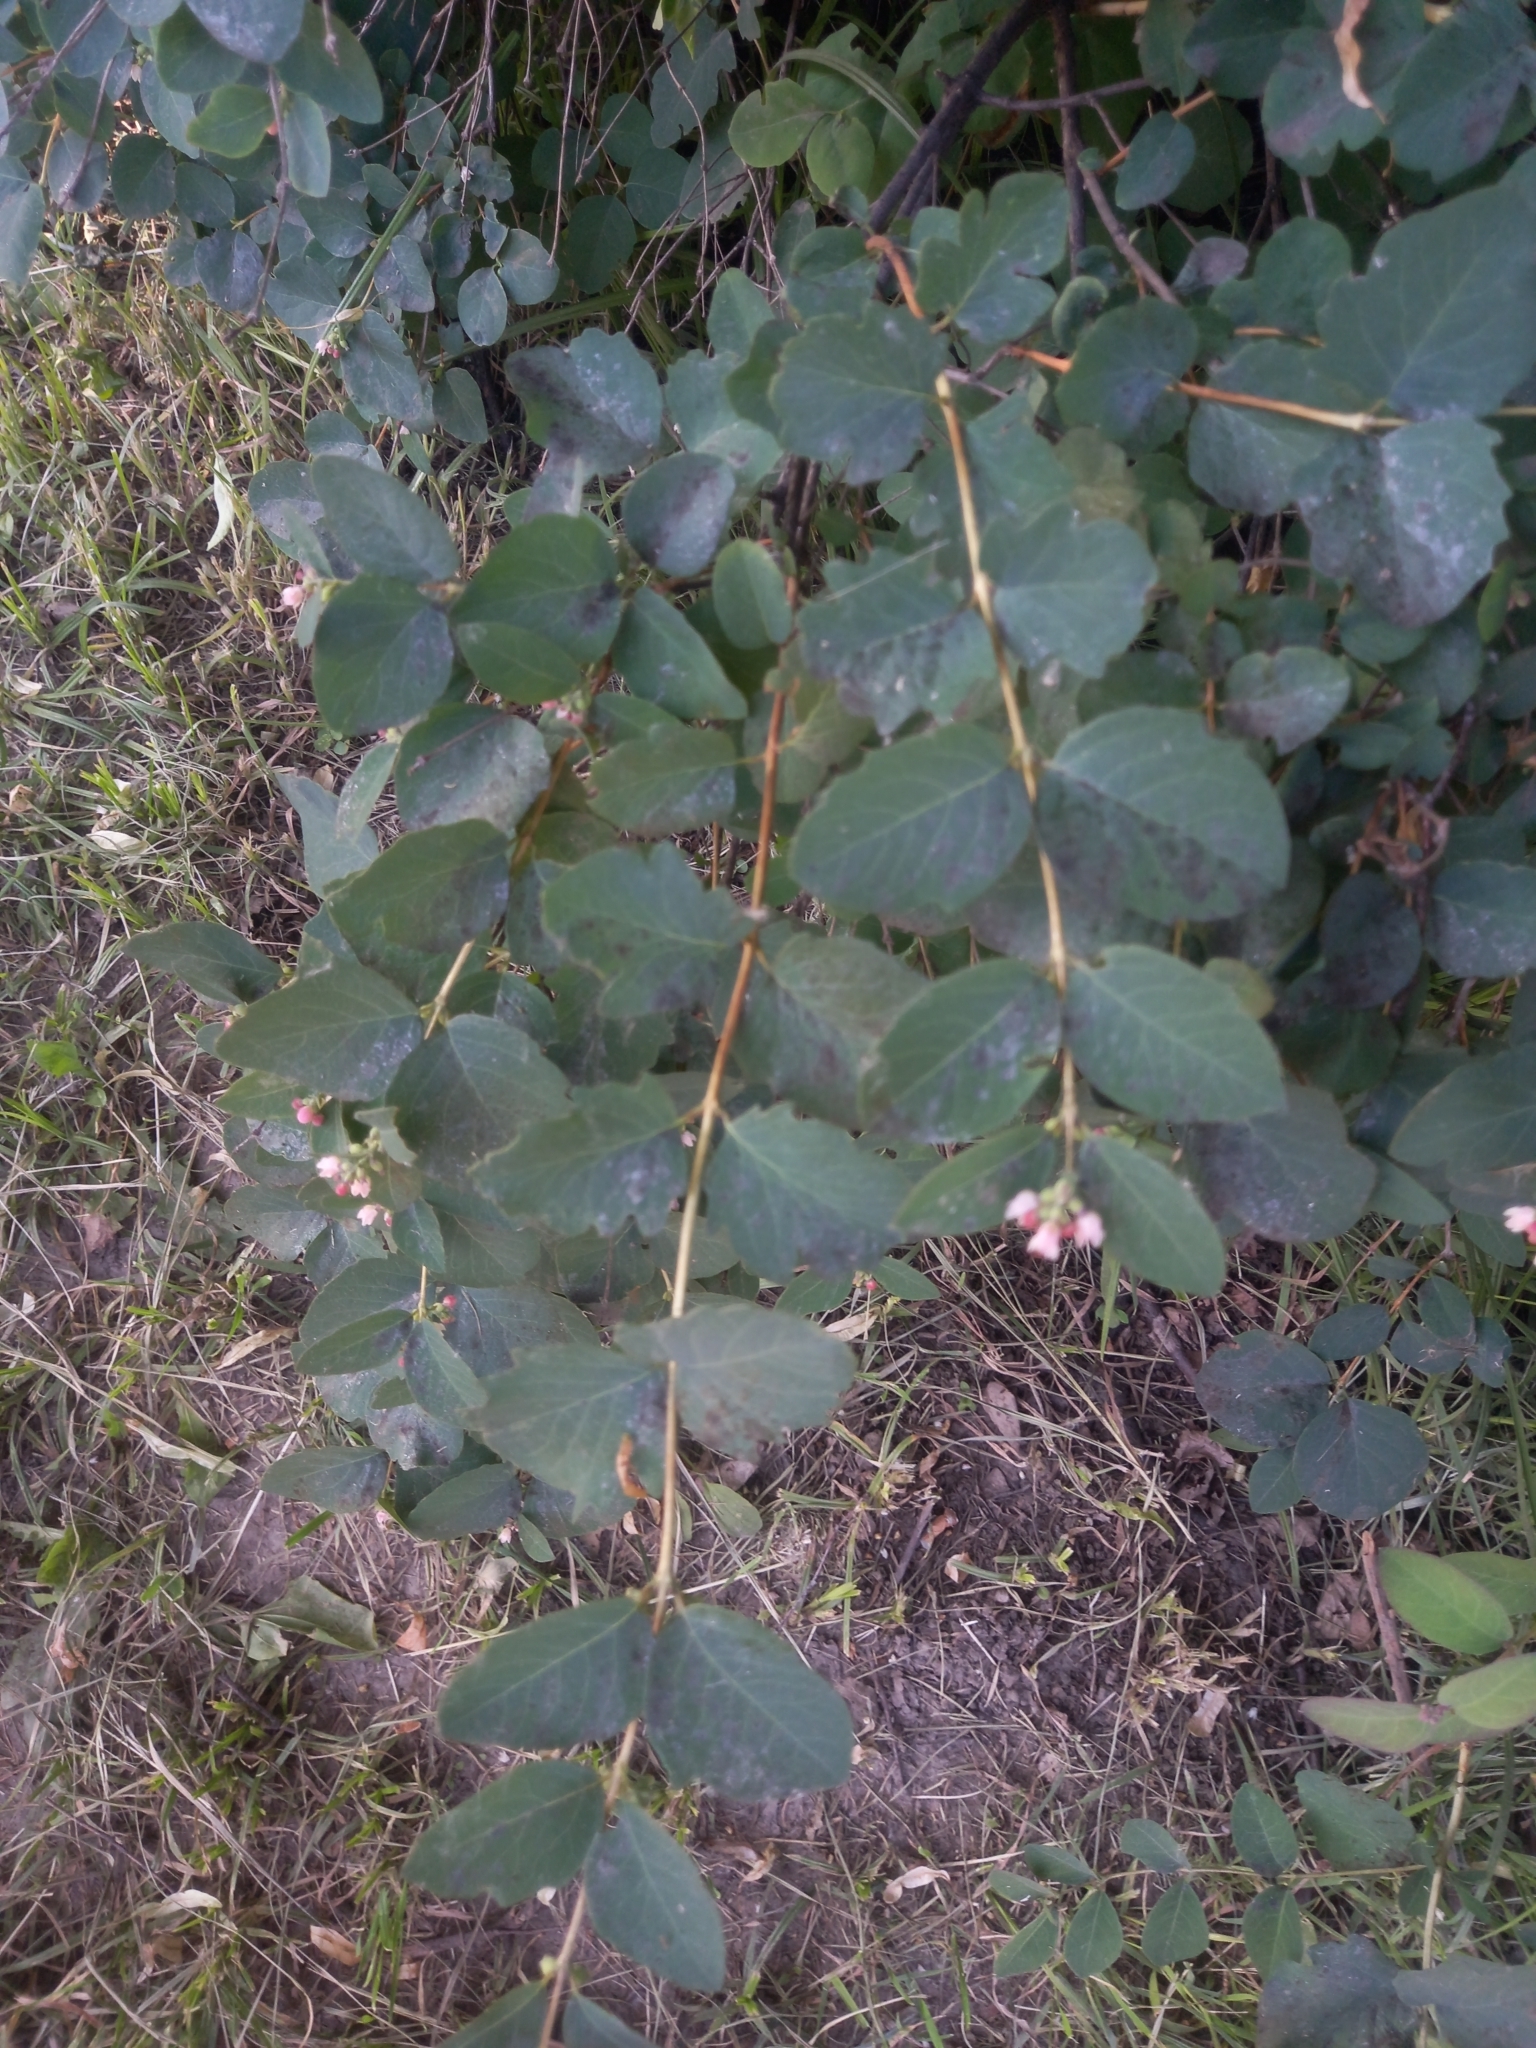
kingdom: Plantae
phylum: Tracheophyta
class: Magnoliopsida
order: Dipsacales
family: Caprifoliaceae
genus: Symphoricarpos
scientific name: Symphoricarpos albus
